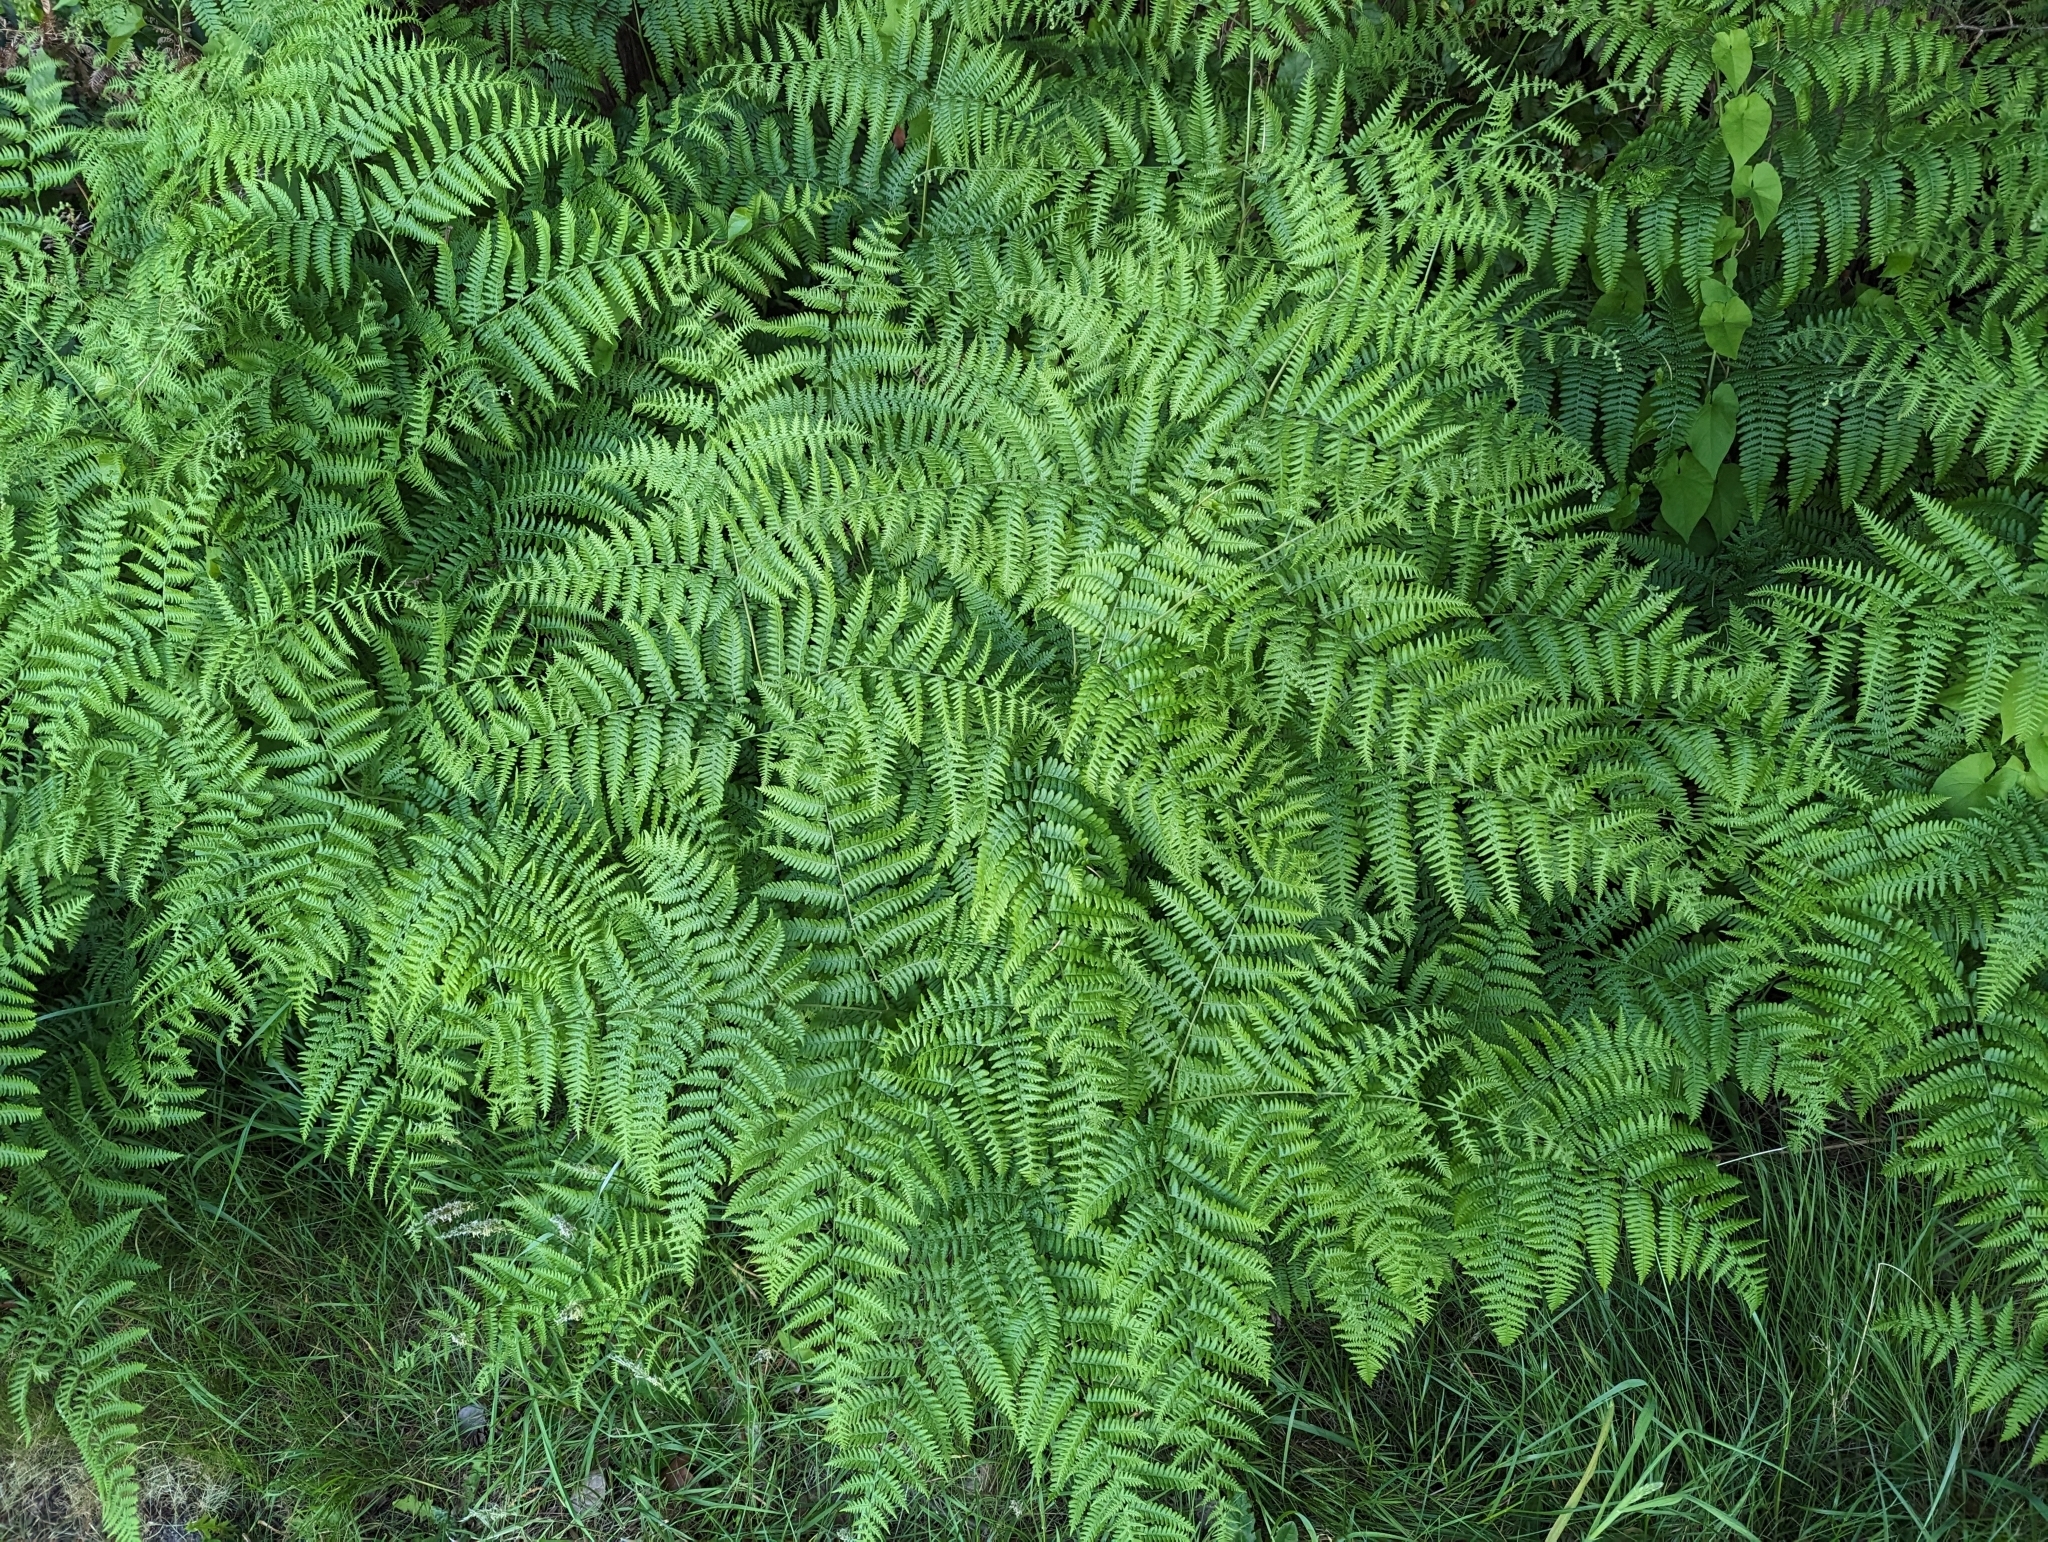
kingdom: Plantae
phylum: Tracheophyta
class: Polypodiopsida
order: Polypodiales
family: Dennstaedtiaceae
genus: Pteridium
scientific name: Pteridium aquilinum
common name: Bracken
